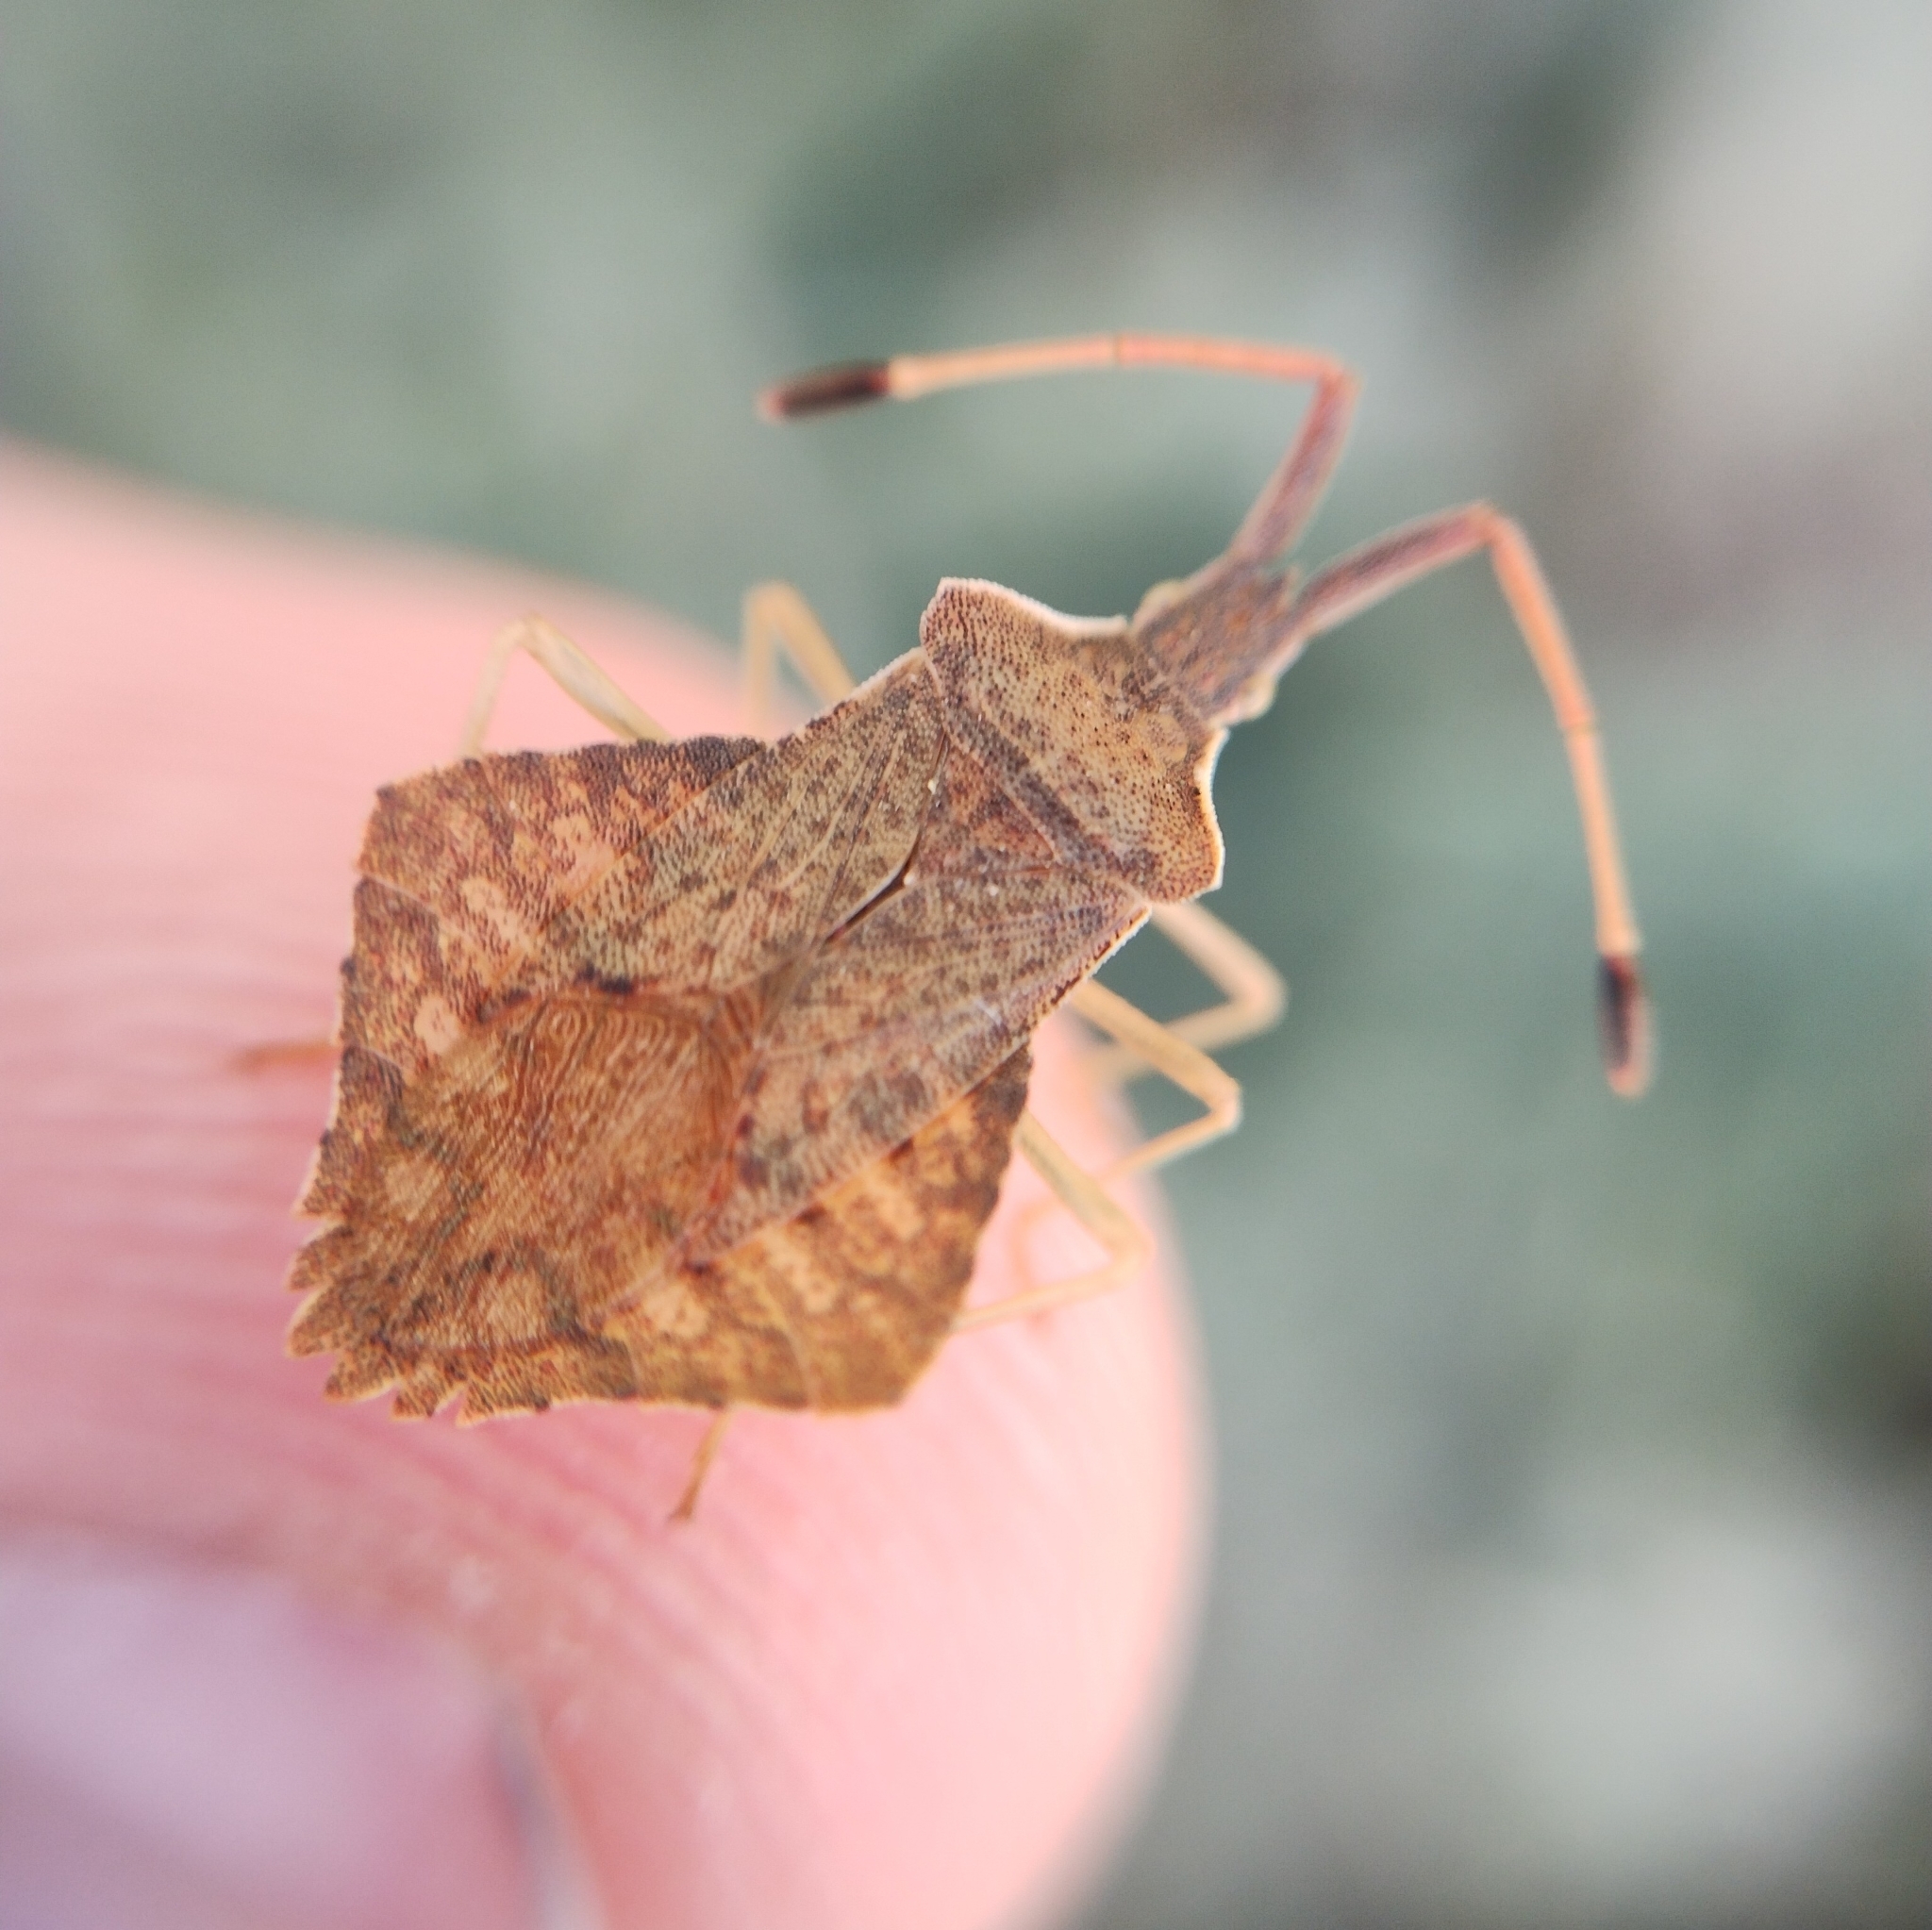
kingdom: Animalia
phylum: Arthropoda
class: Insecta
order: Hemiptera
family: Coreidae
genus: Syromastus
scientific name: Syromastus rhombeus
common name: Rhombic leatherbug
